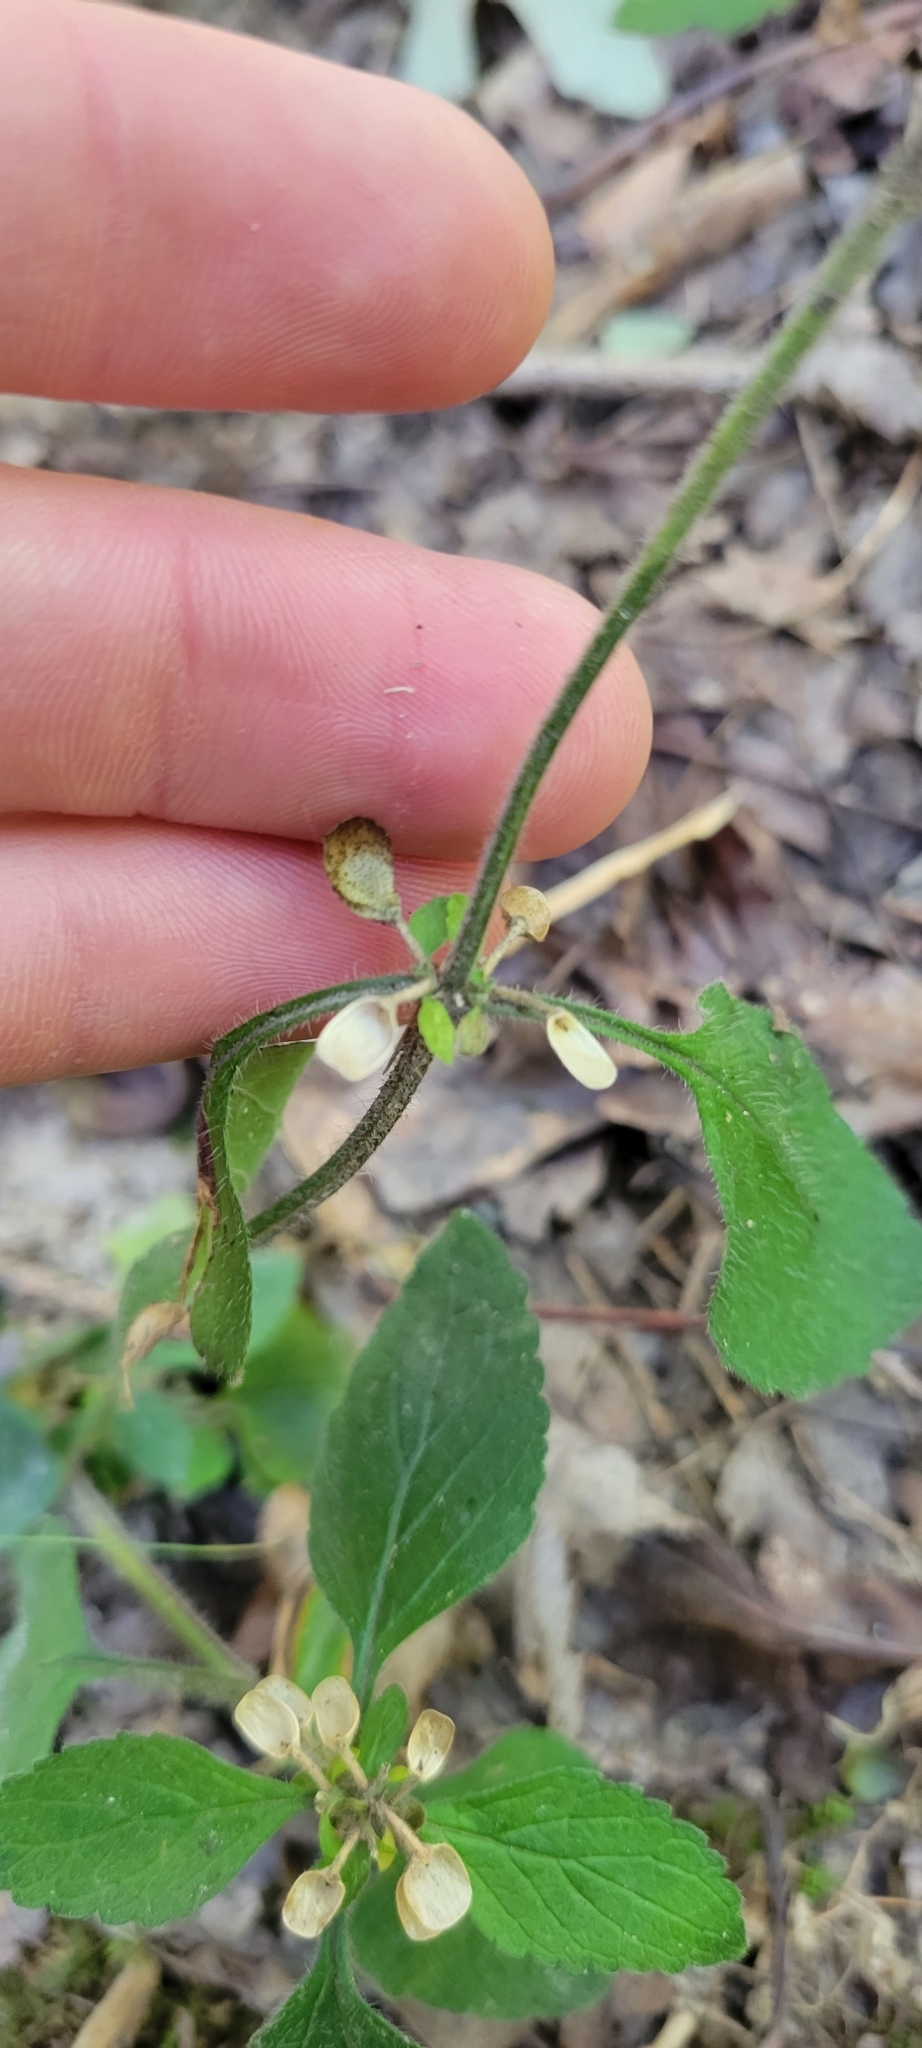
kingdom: Plantae
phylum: Tracheophyta
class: Magnoliopsida
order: Lamiales
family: Lamiaceae
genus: Scutellaria
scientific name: Scutellaria elliptica
